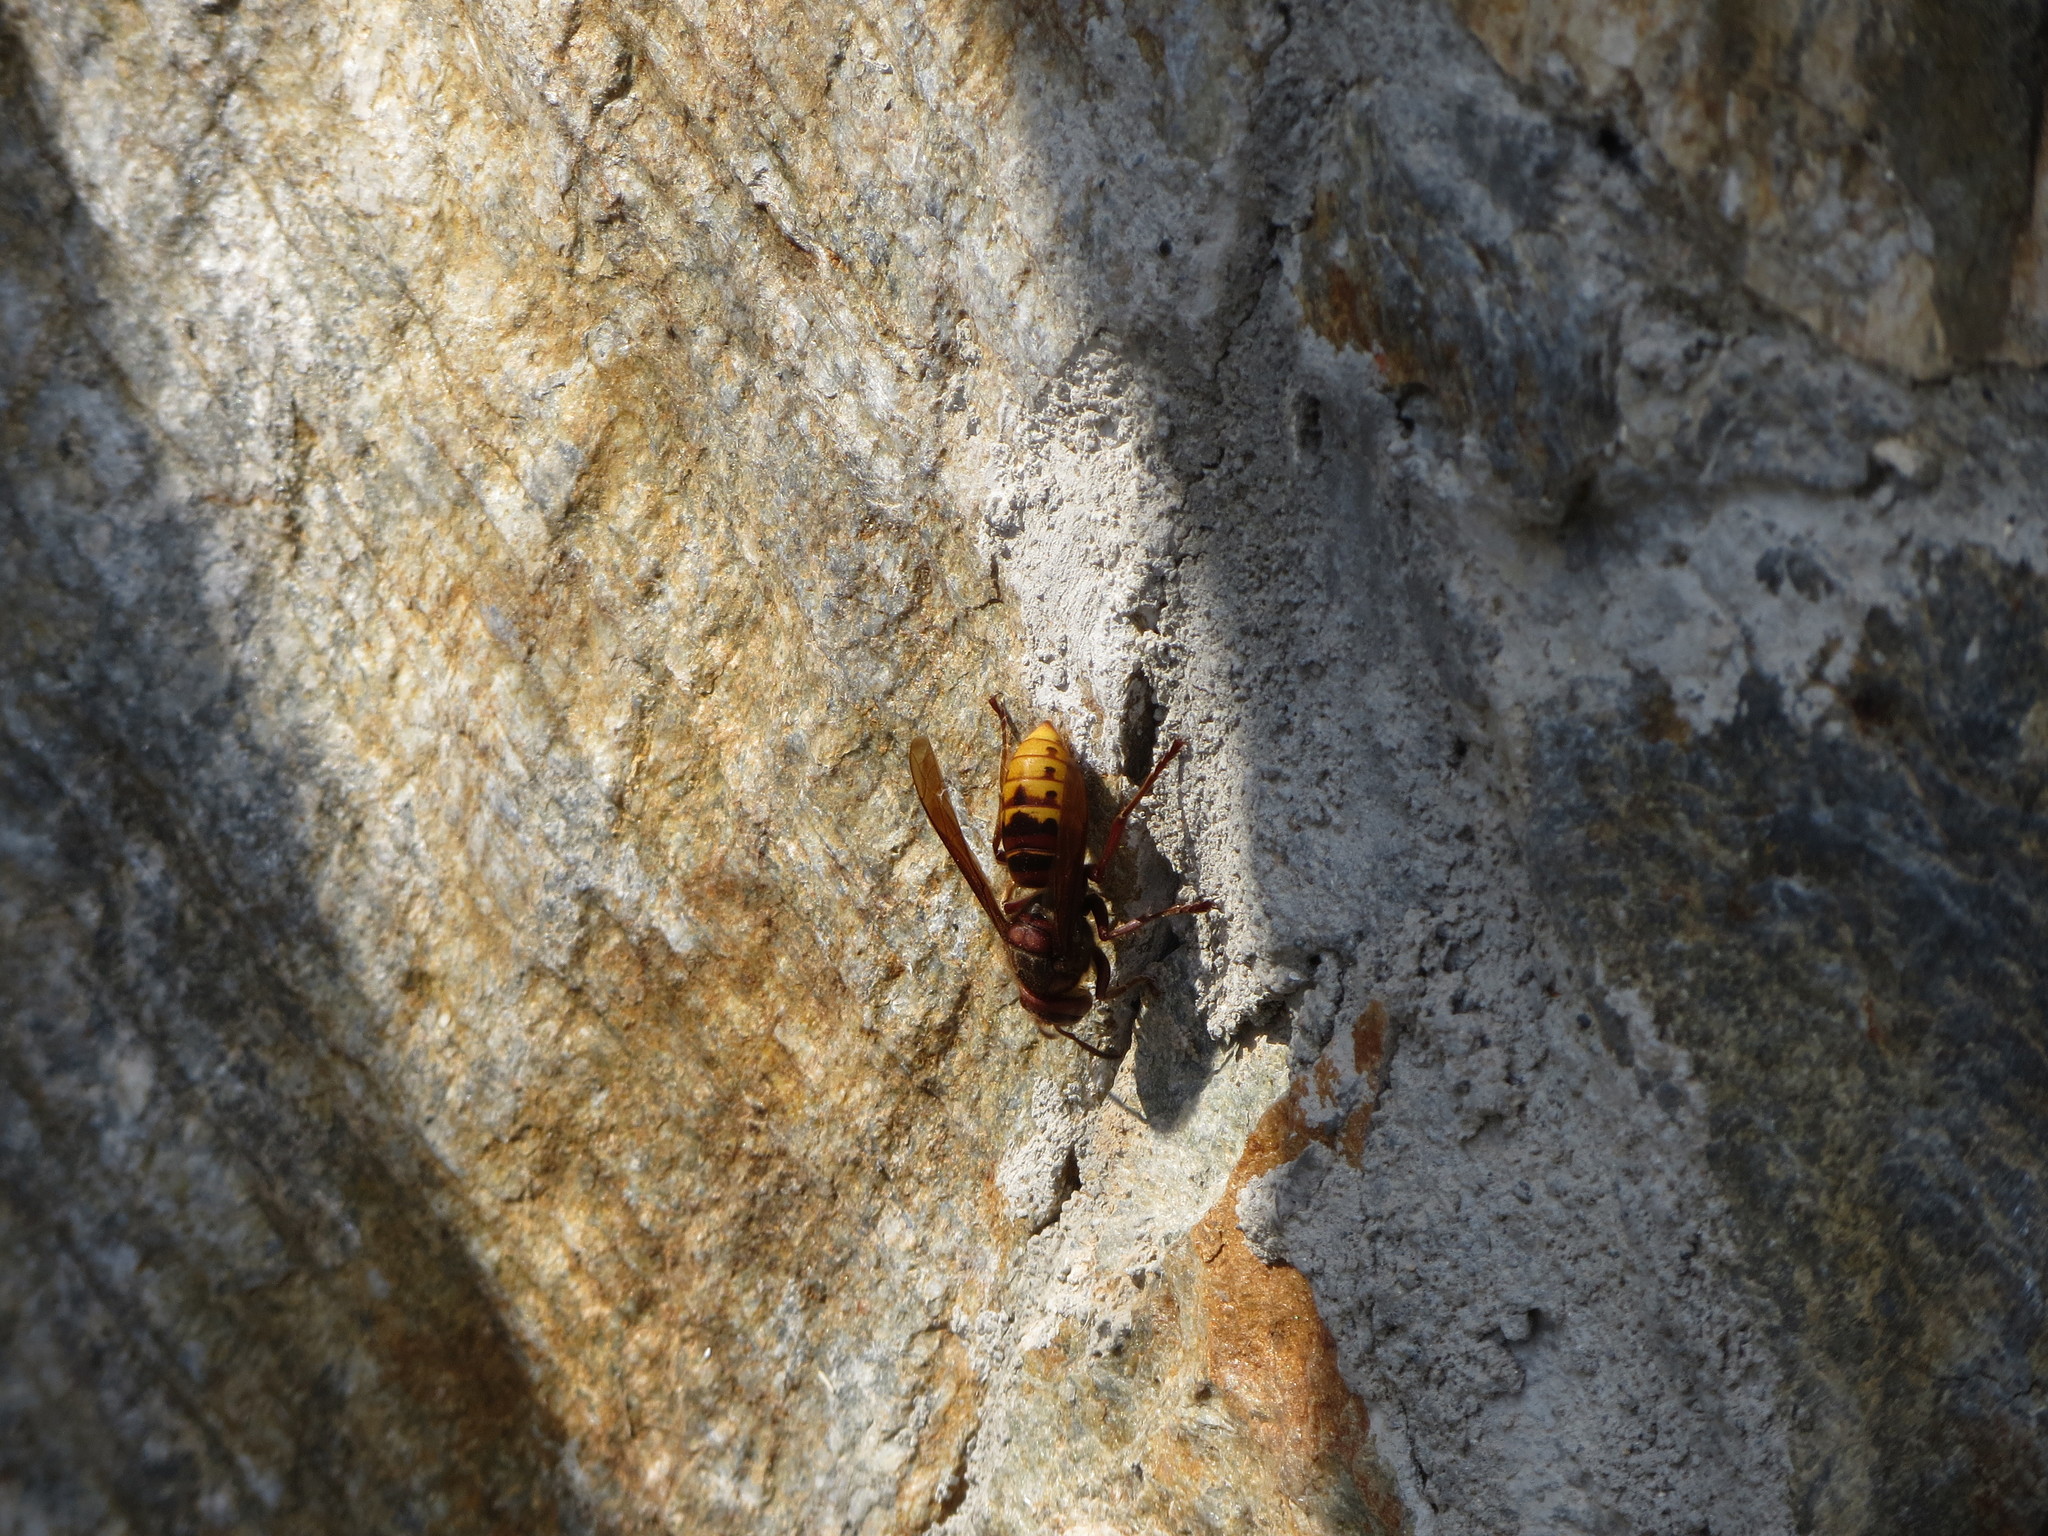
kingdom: Animalia
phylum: Arthropoda
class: Insecta
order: Hymenoptera
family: Vespidae
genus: Vespa
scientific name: Vespa crabro
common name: Hornet
